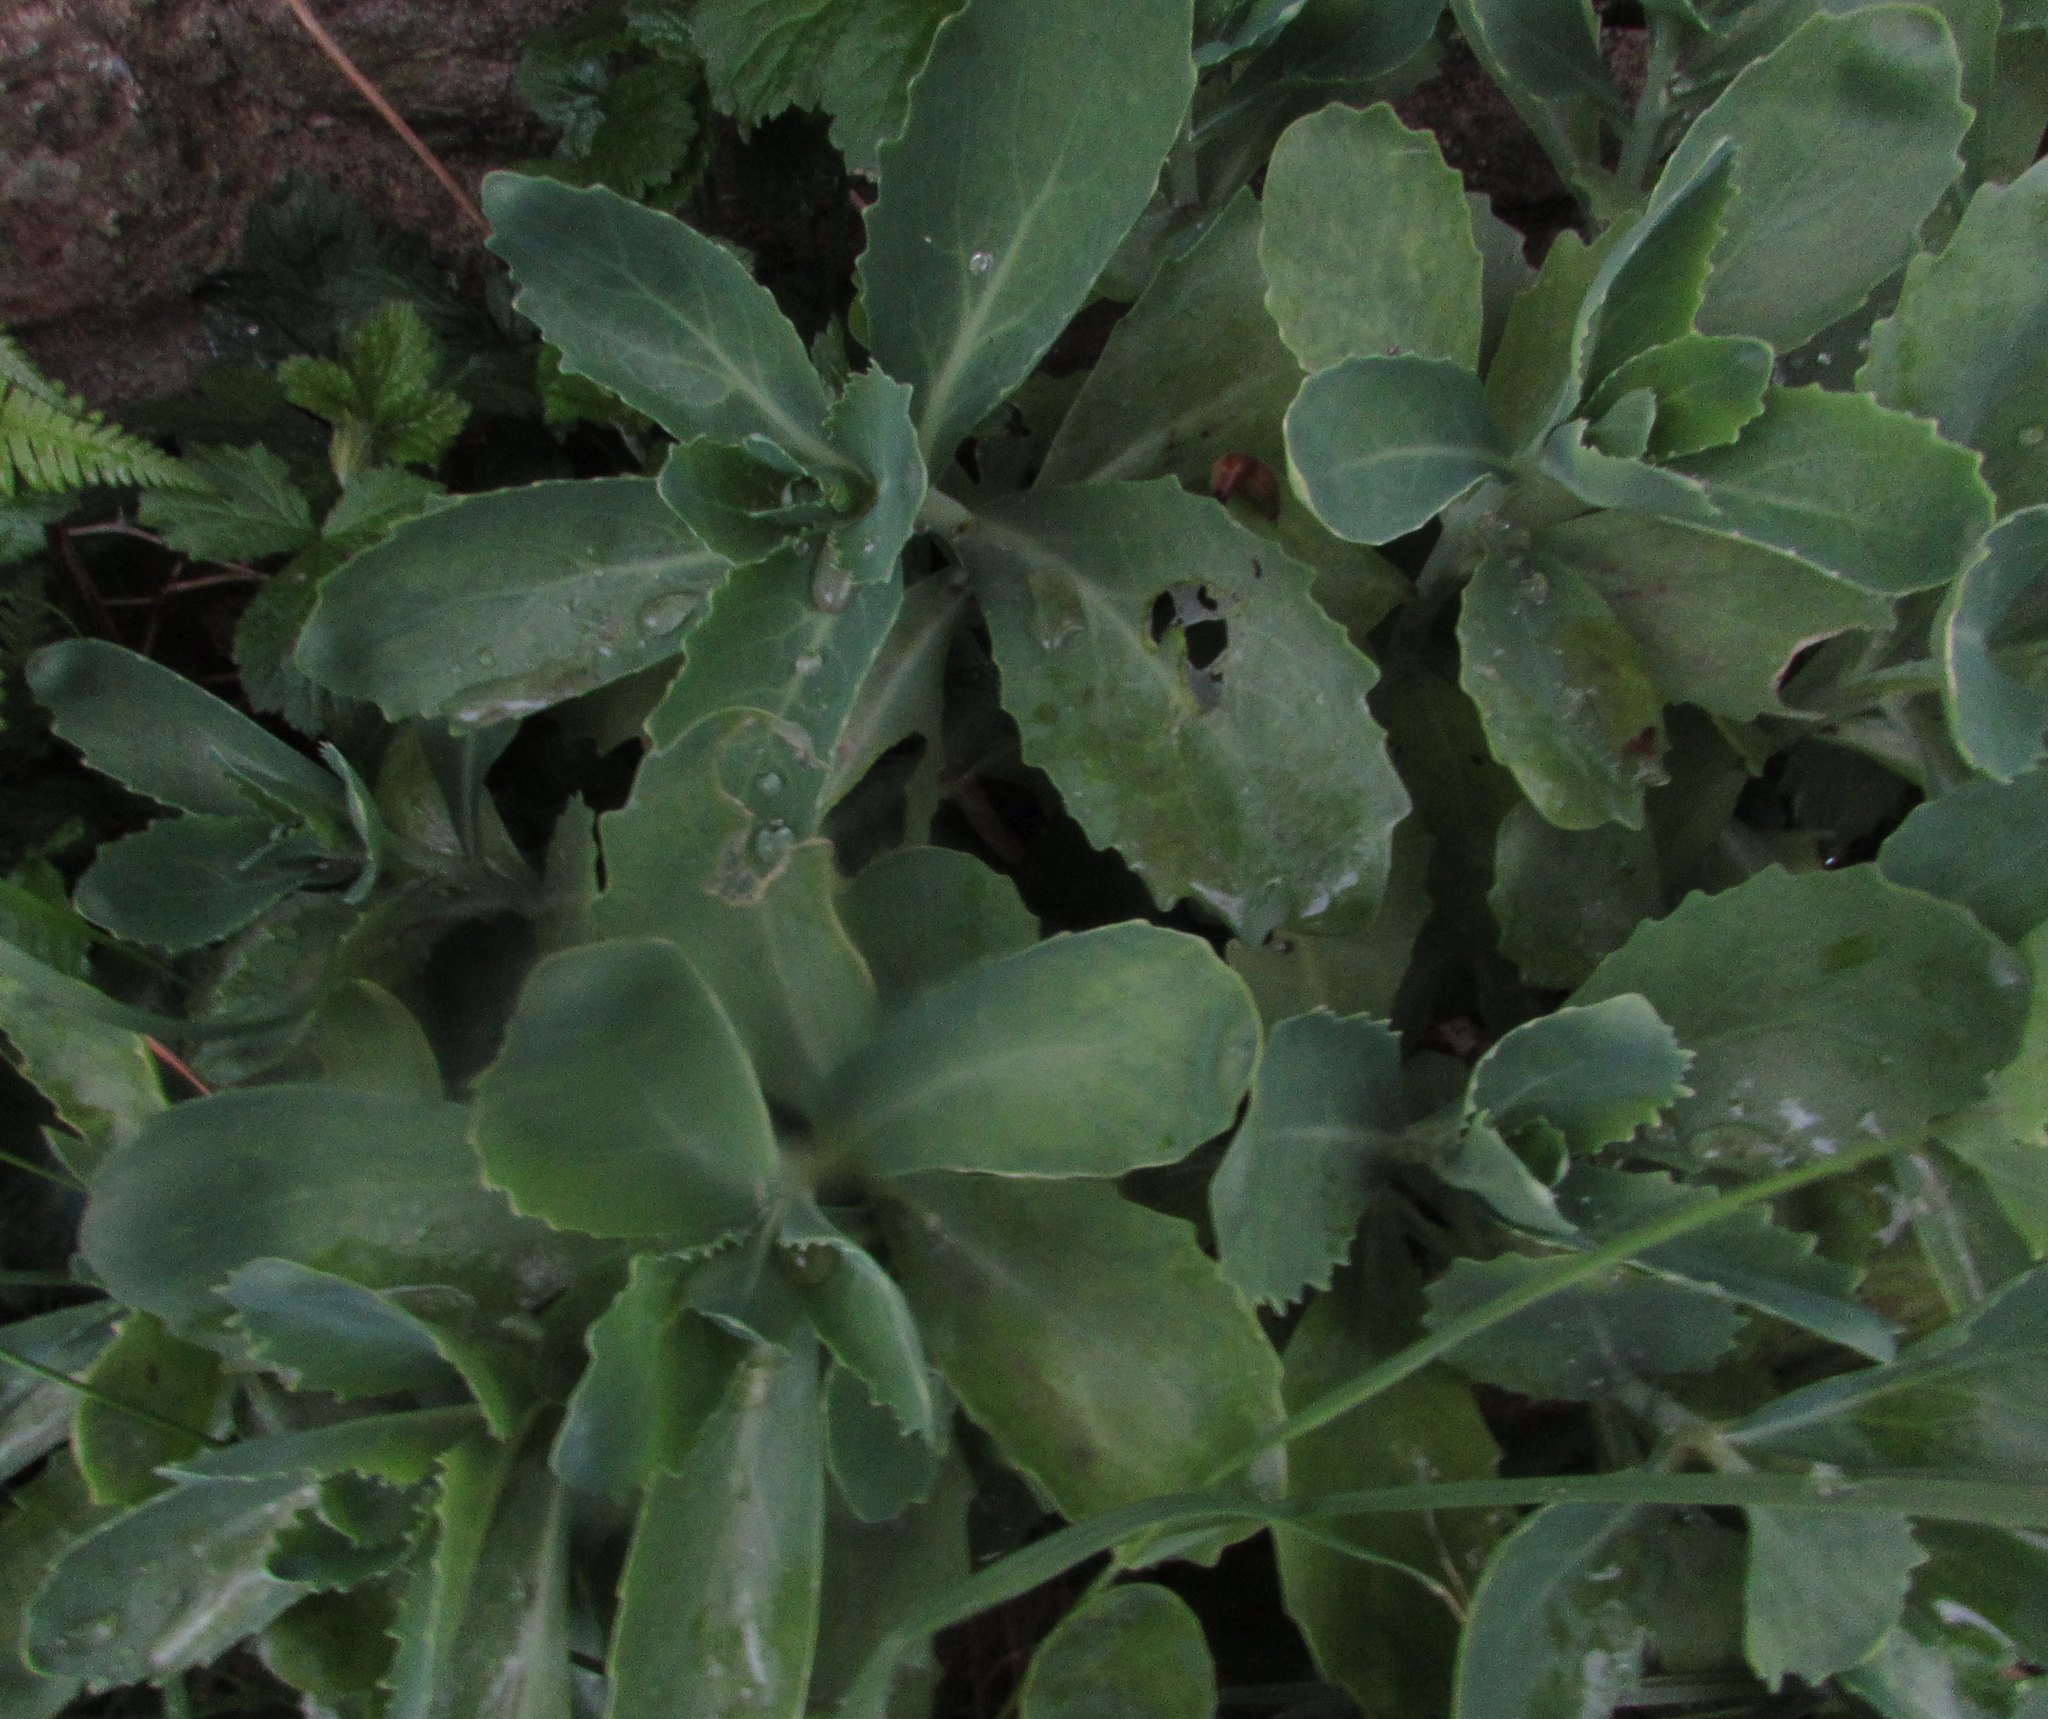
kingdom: Plantae
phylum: Tracheophyta
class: Magnoliopsida
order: Saxifragales
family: Crassulaceae
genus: Hylotelephium
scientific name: Hylotelephium
